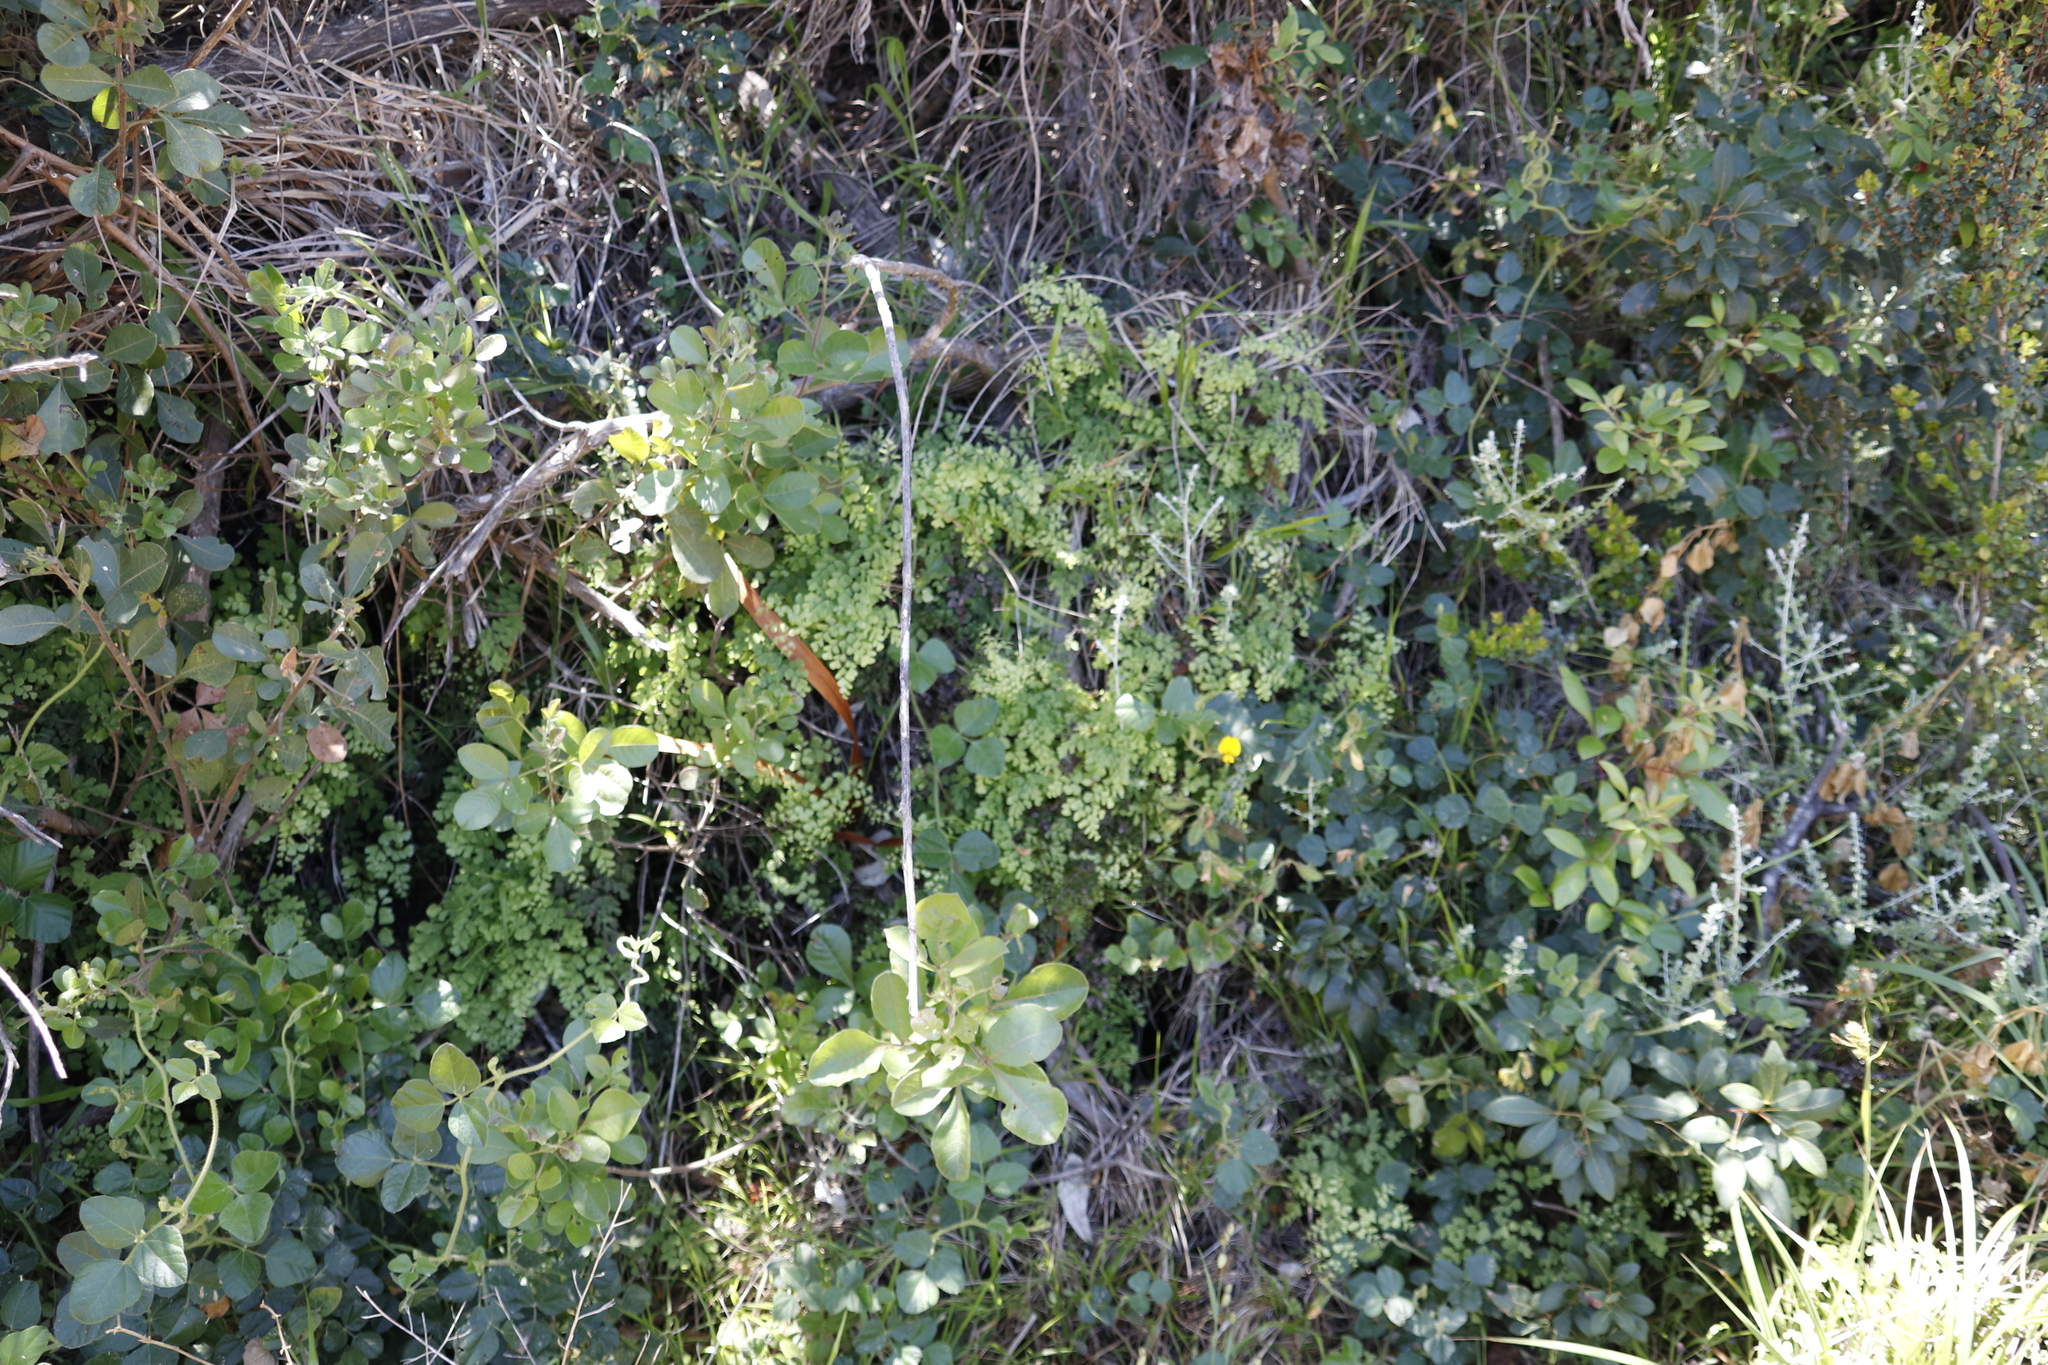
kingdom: Plantae
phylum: Tracheophyta
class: Polypodiopsida
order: Polypodiales
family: Pteridaceae
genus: Adiantum
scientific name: Adiantum capillus-veneris
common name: Maidenhair fern
